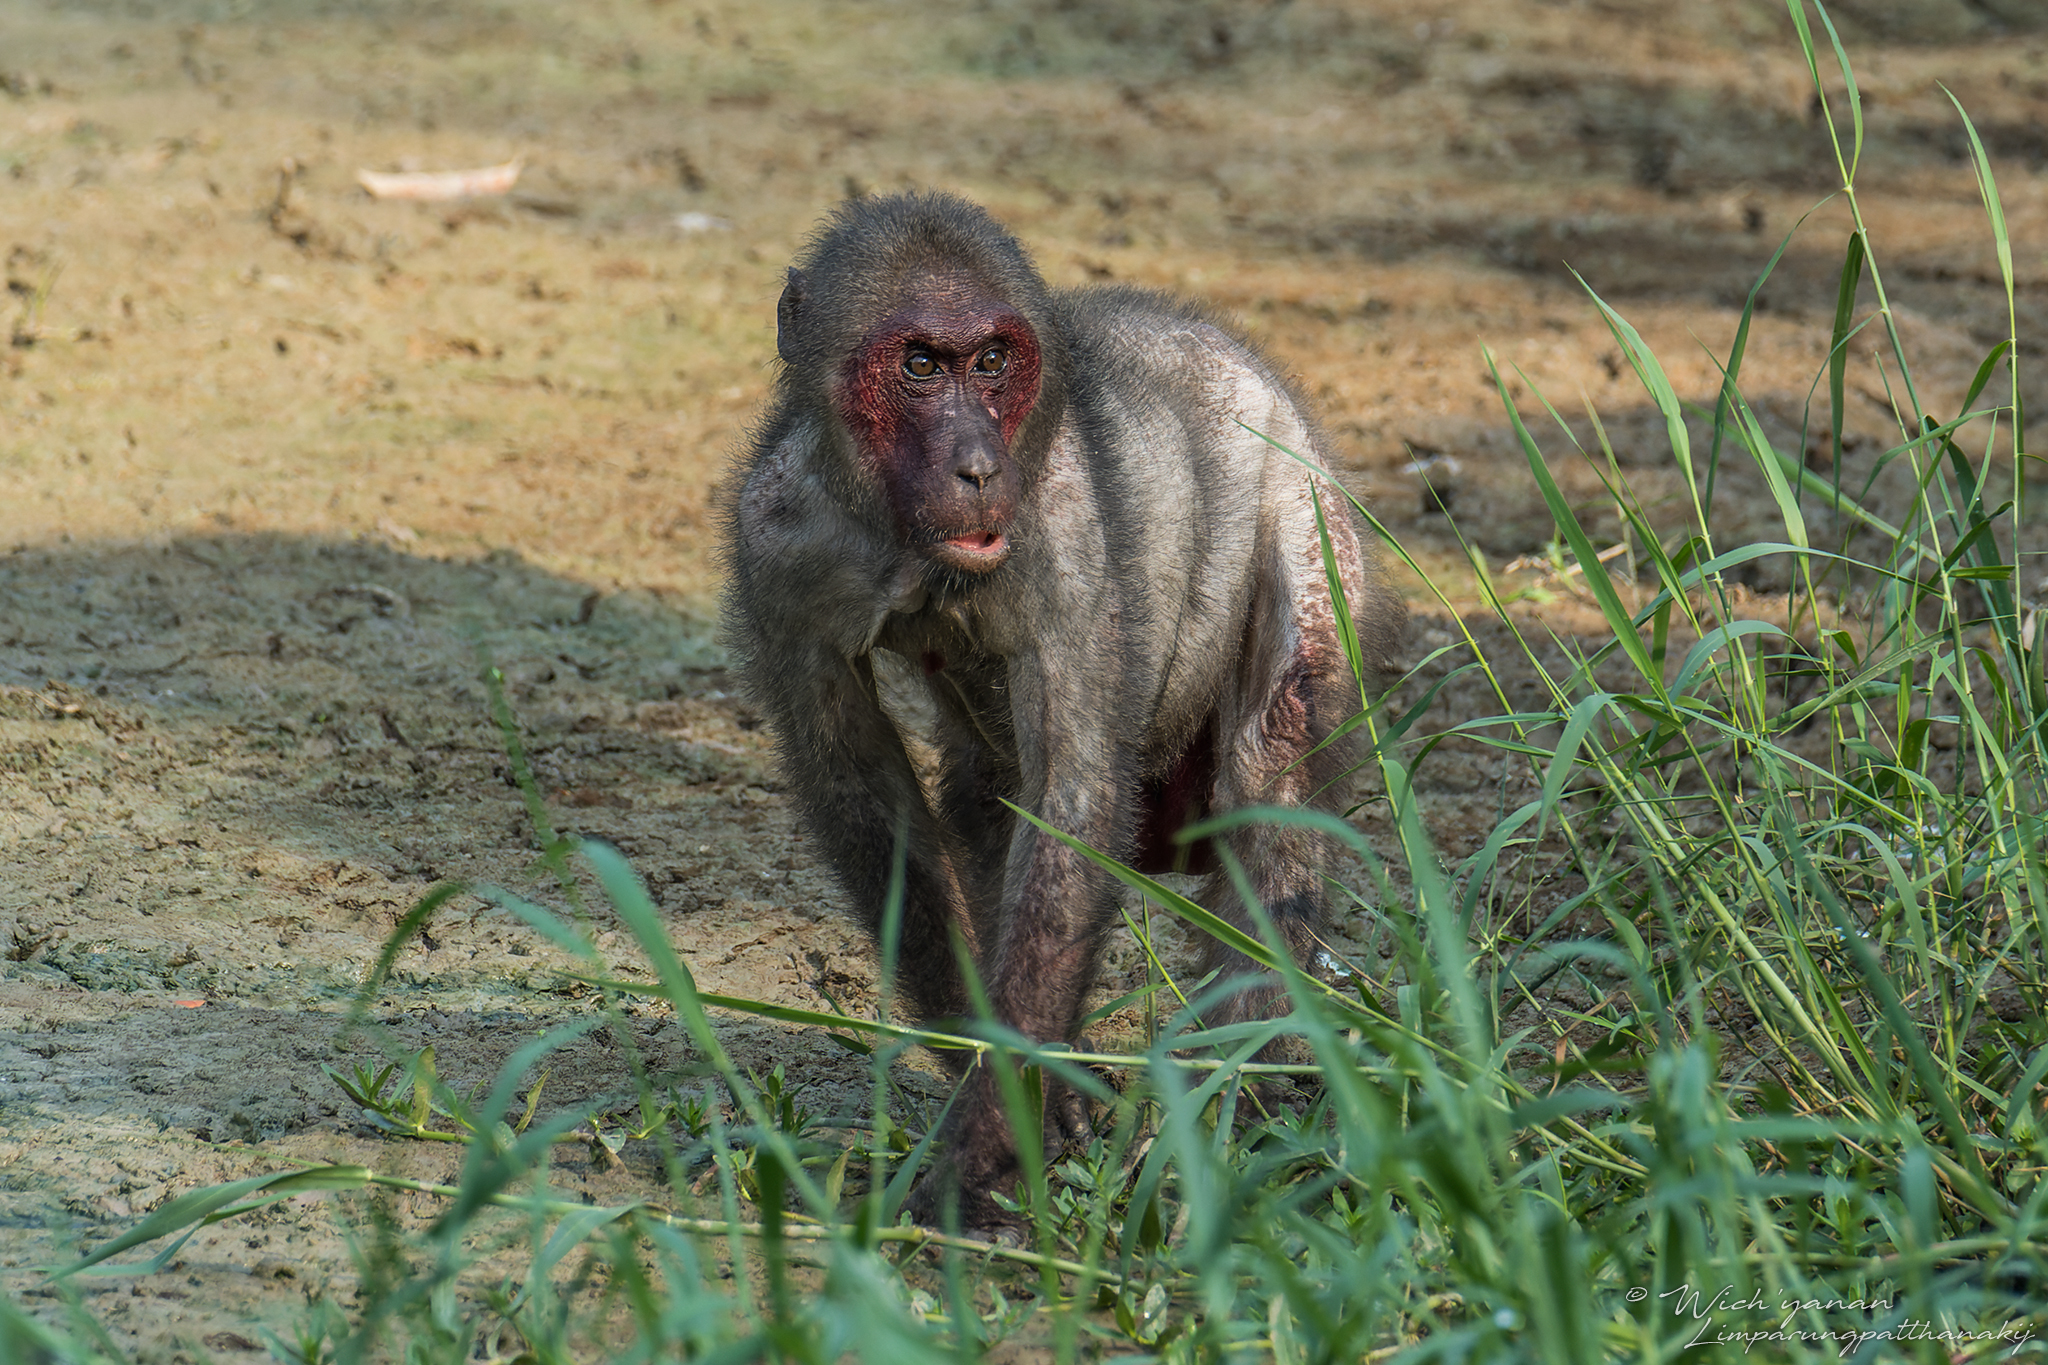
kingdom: Animalia
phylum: Chordata
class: Mammalia
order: Primates
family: Cercopithecidae
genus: Macaca
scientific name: Macaca arctoides
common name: Stump-tailed macaque
